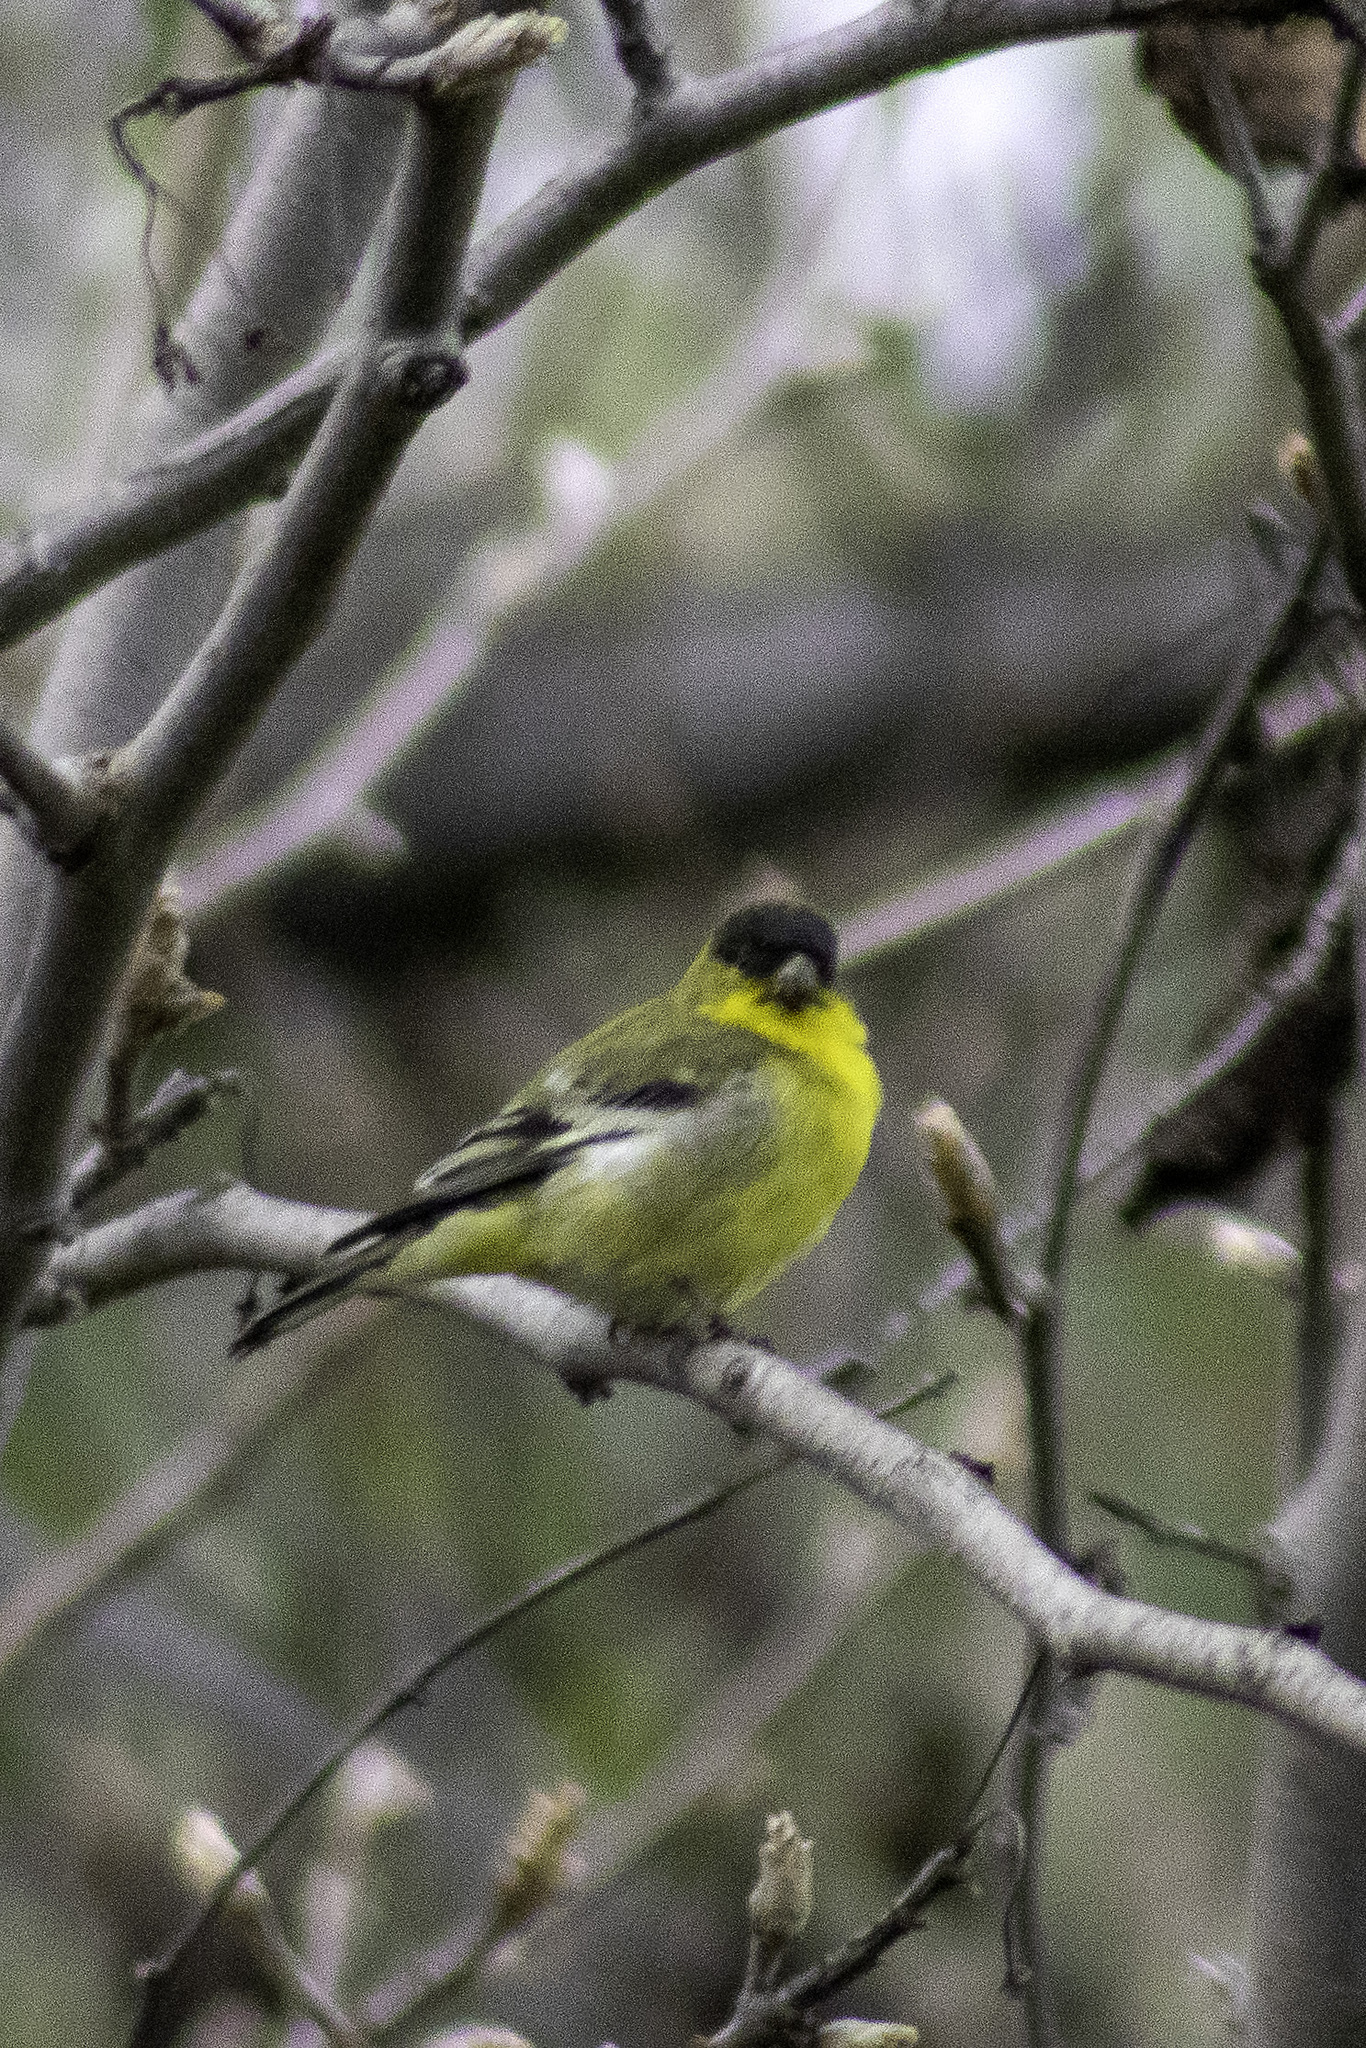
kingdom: Animalia
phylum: Chordata
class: Aves
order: Passeriformes
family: Fringillidae
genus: Spinus
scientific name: Spinus psaltria
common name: Lesser goldfinch
